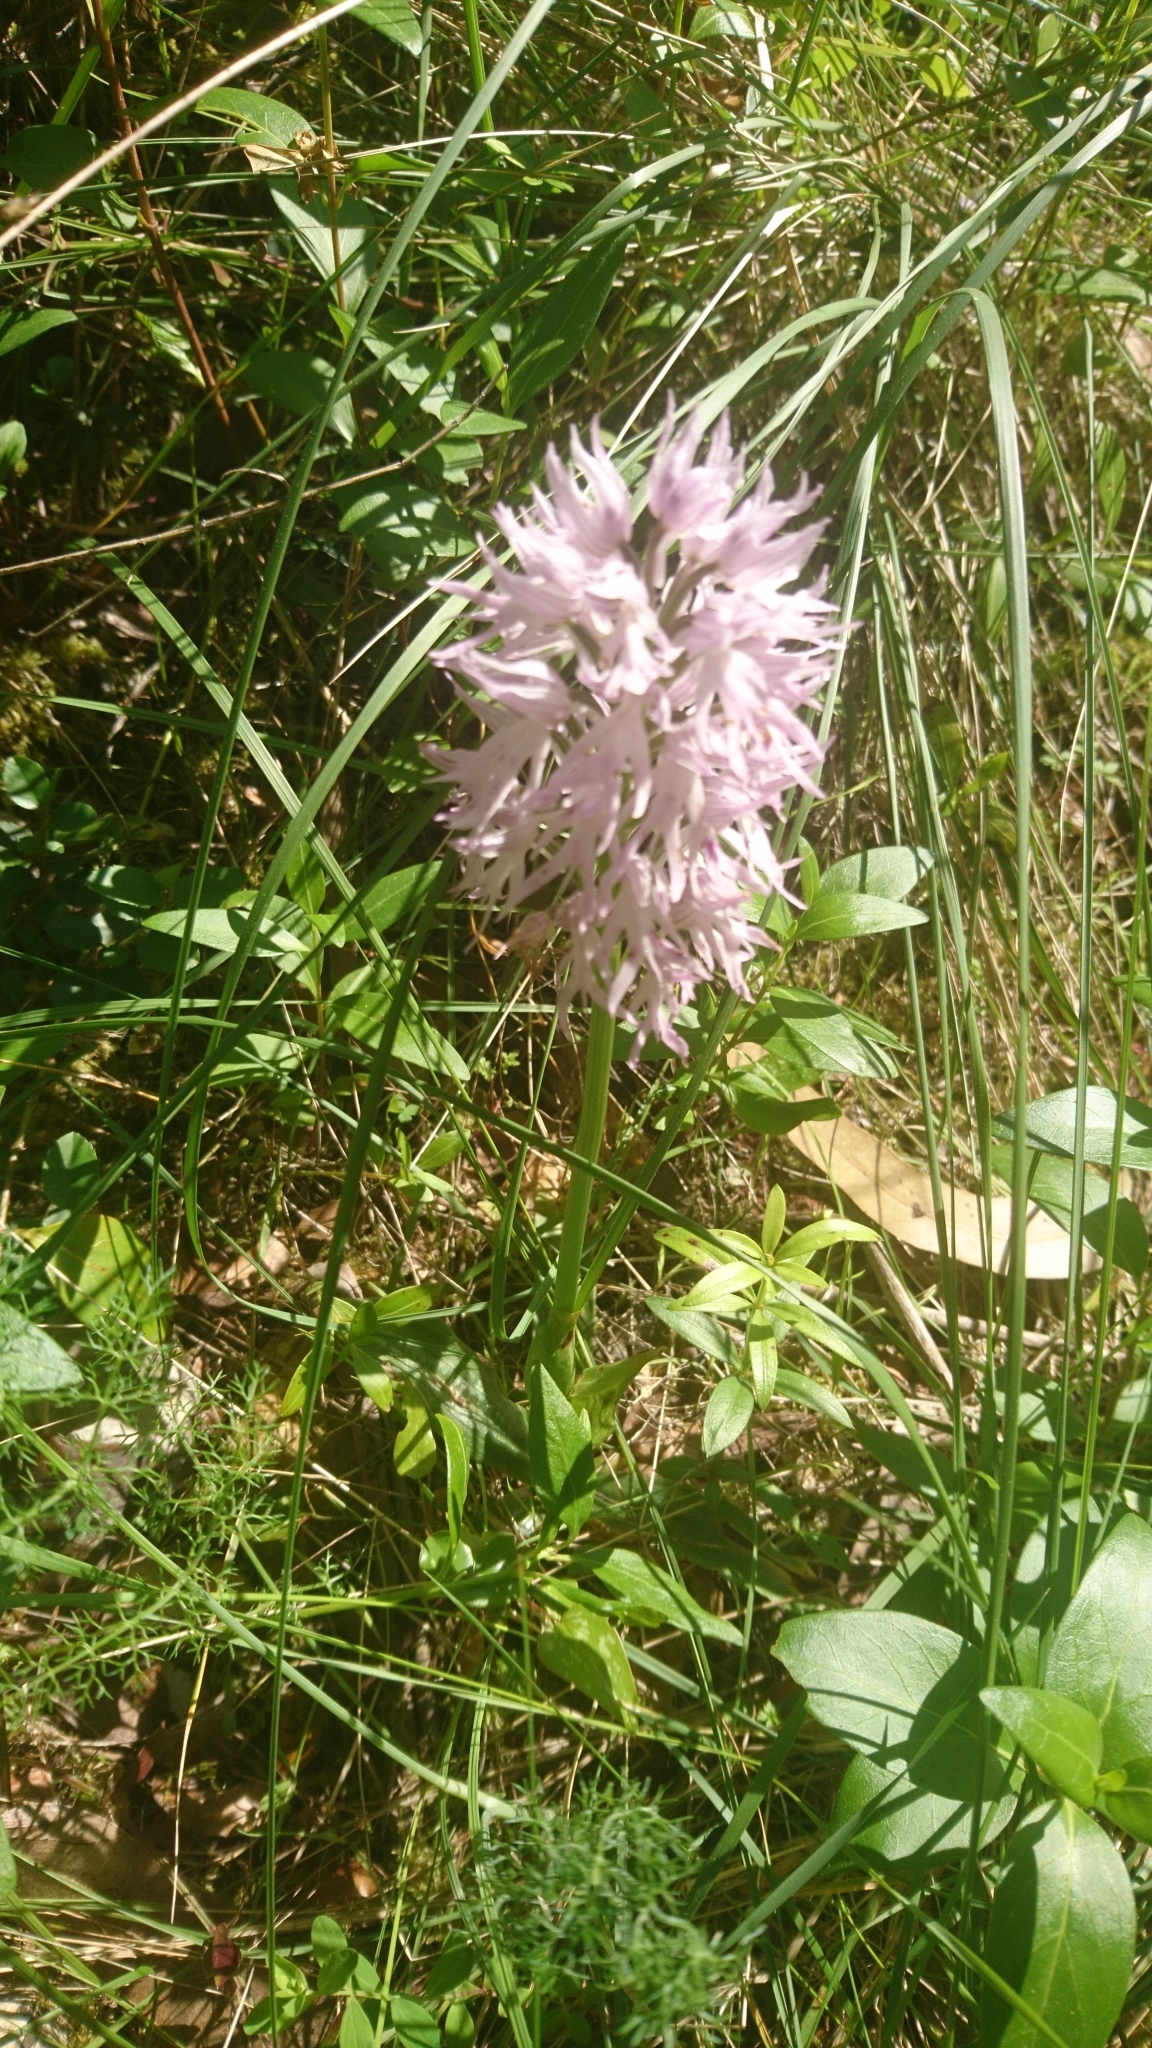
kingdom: Plantae
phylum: Tracheophyta
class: Liliopsida
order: Asparagales
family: Orchidaceae
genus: Orchis
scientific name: Orchis italica
